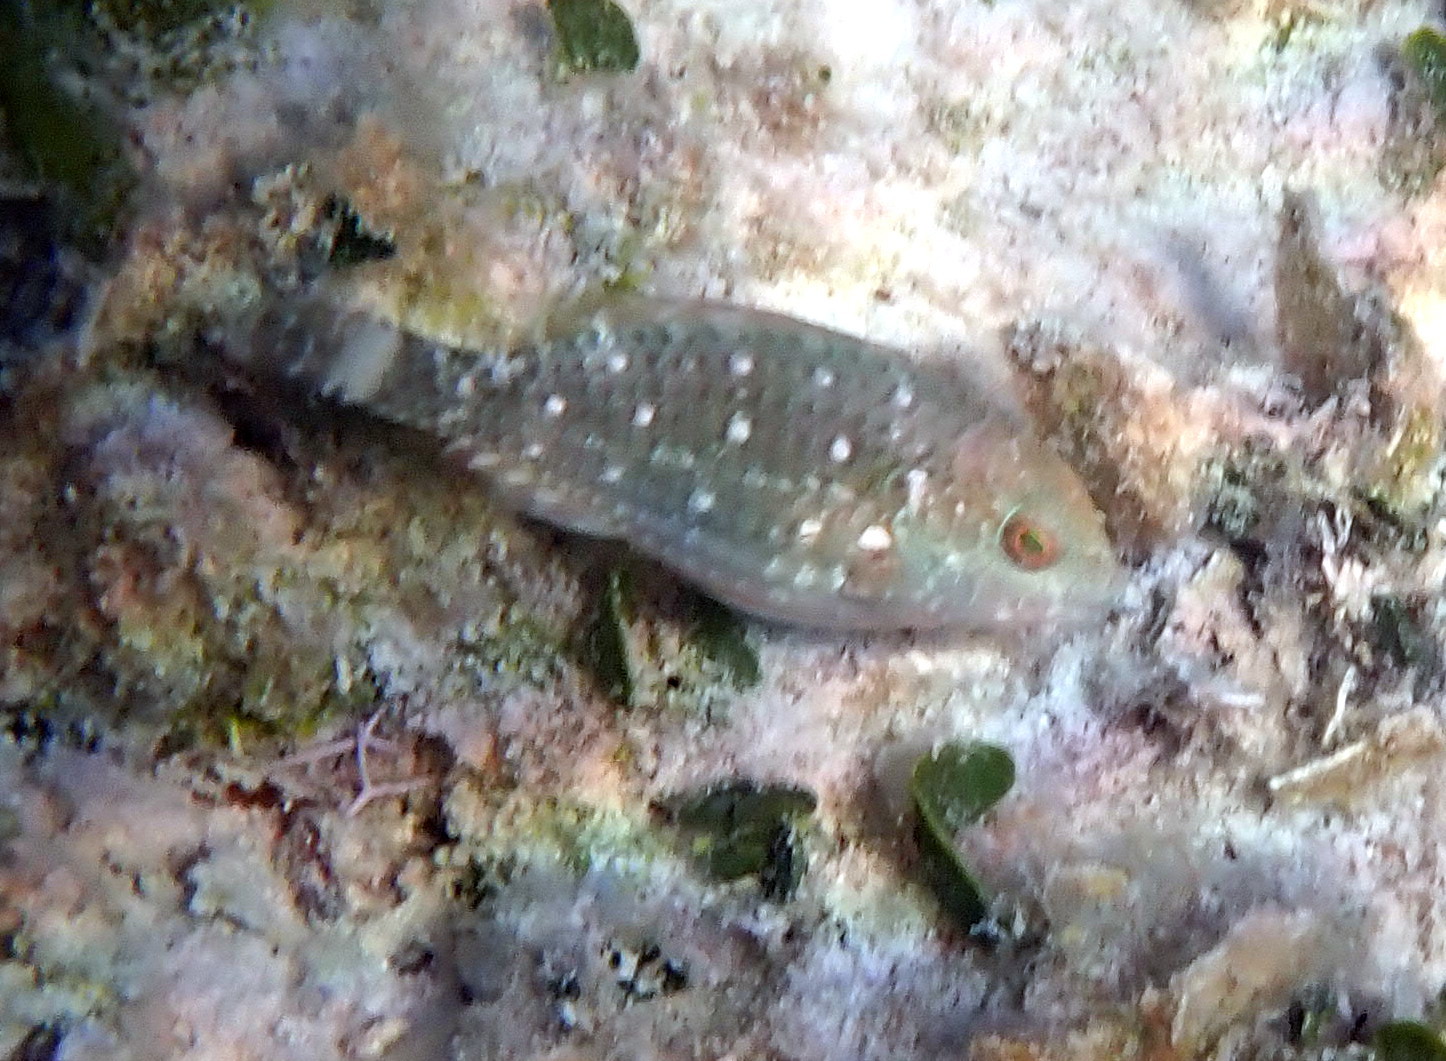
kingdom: Animalia
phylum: Chordata
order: Perciformes
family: Scaridae
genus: Sparisoma
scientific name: Sparisoma viride
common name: Stoplight parrotfish
